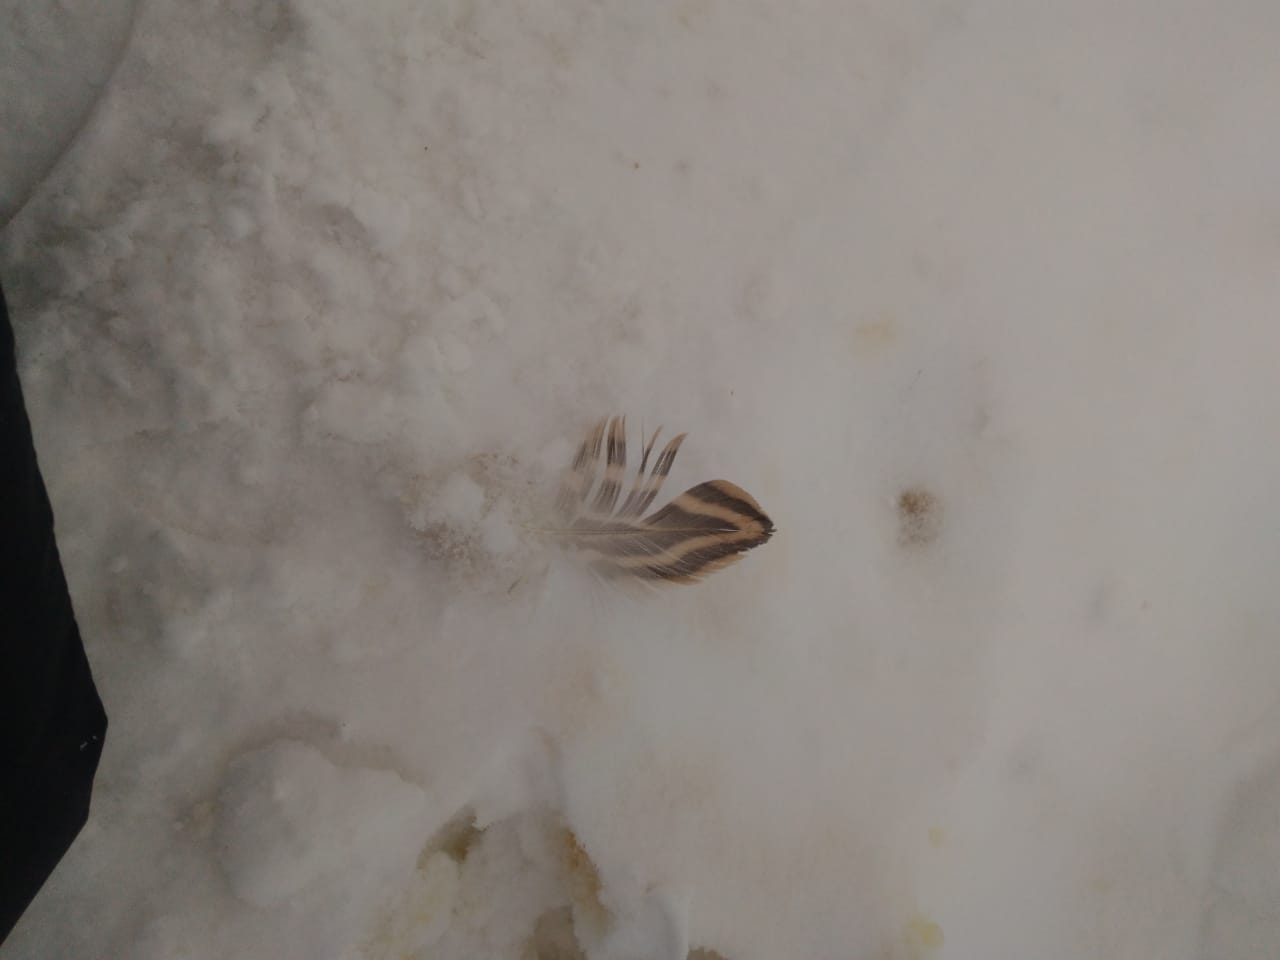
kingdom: Animalia
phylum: Chordata
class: Aves
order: Anseriformes
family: Anatidae
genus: Anas
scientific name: Anas platyrhynchos
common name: Mallard
